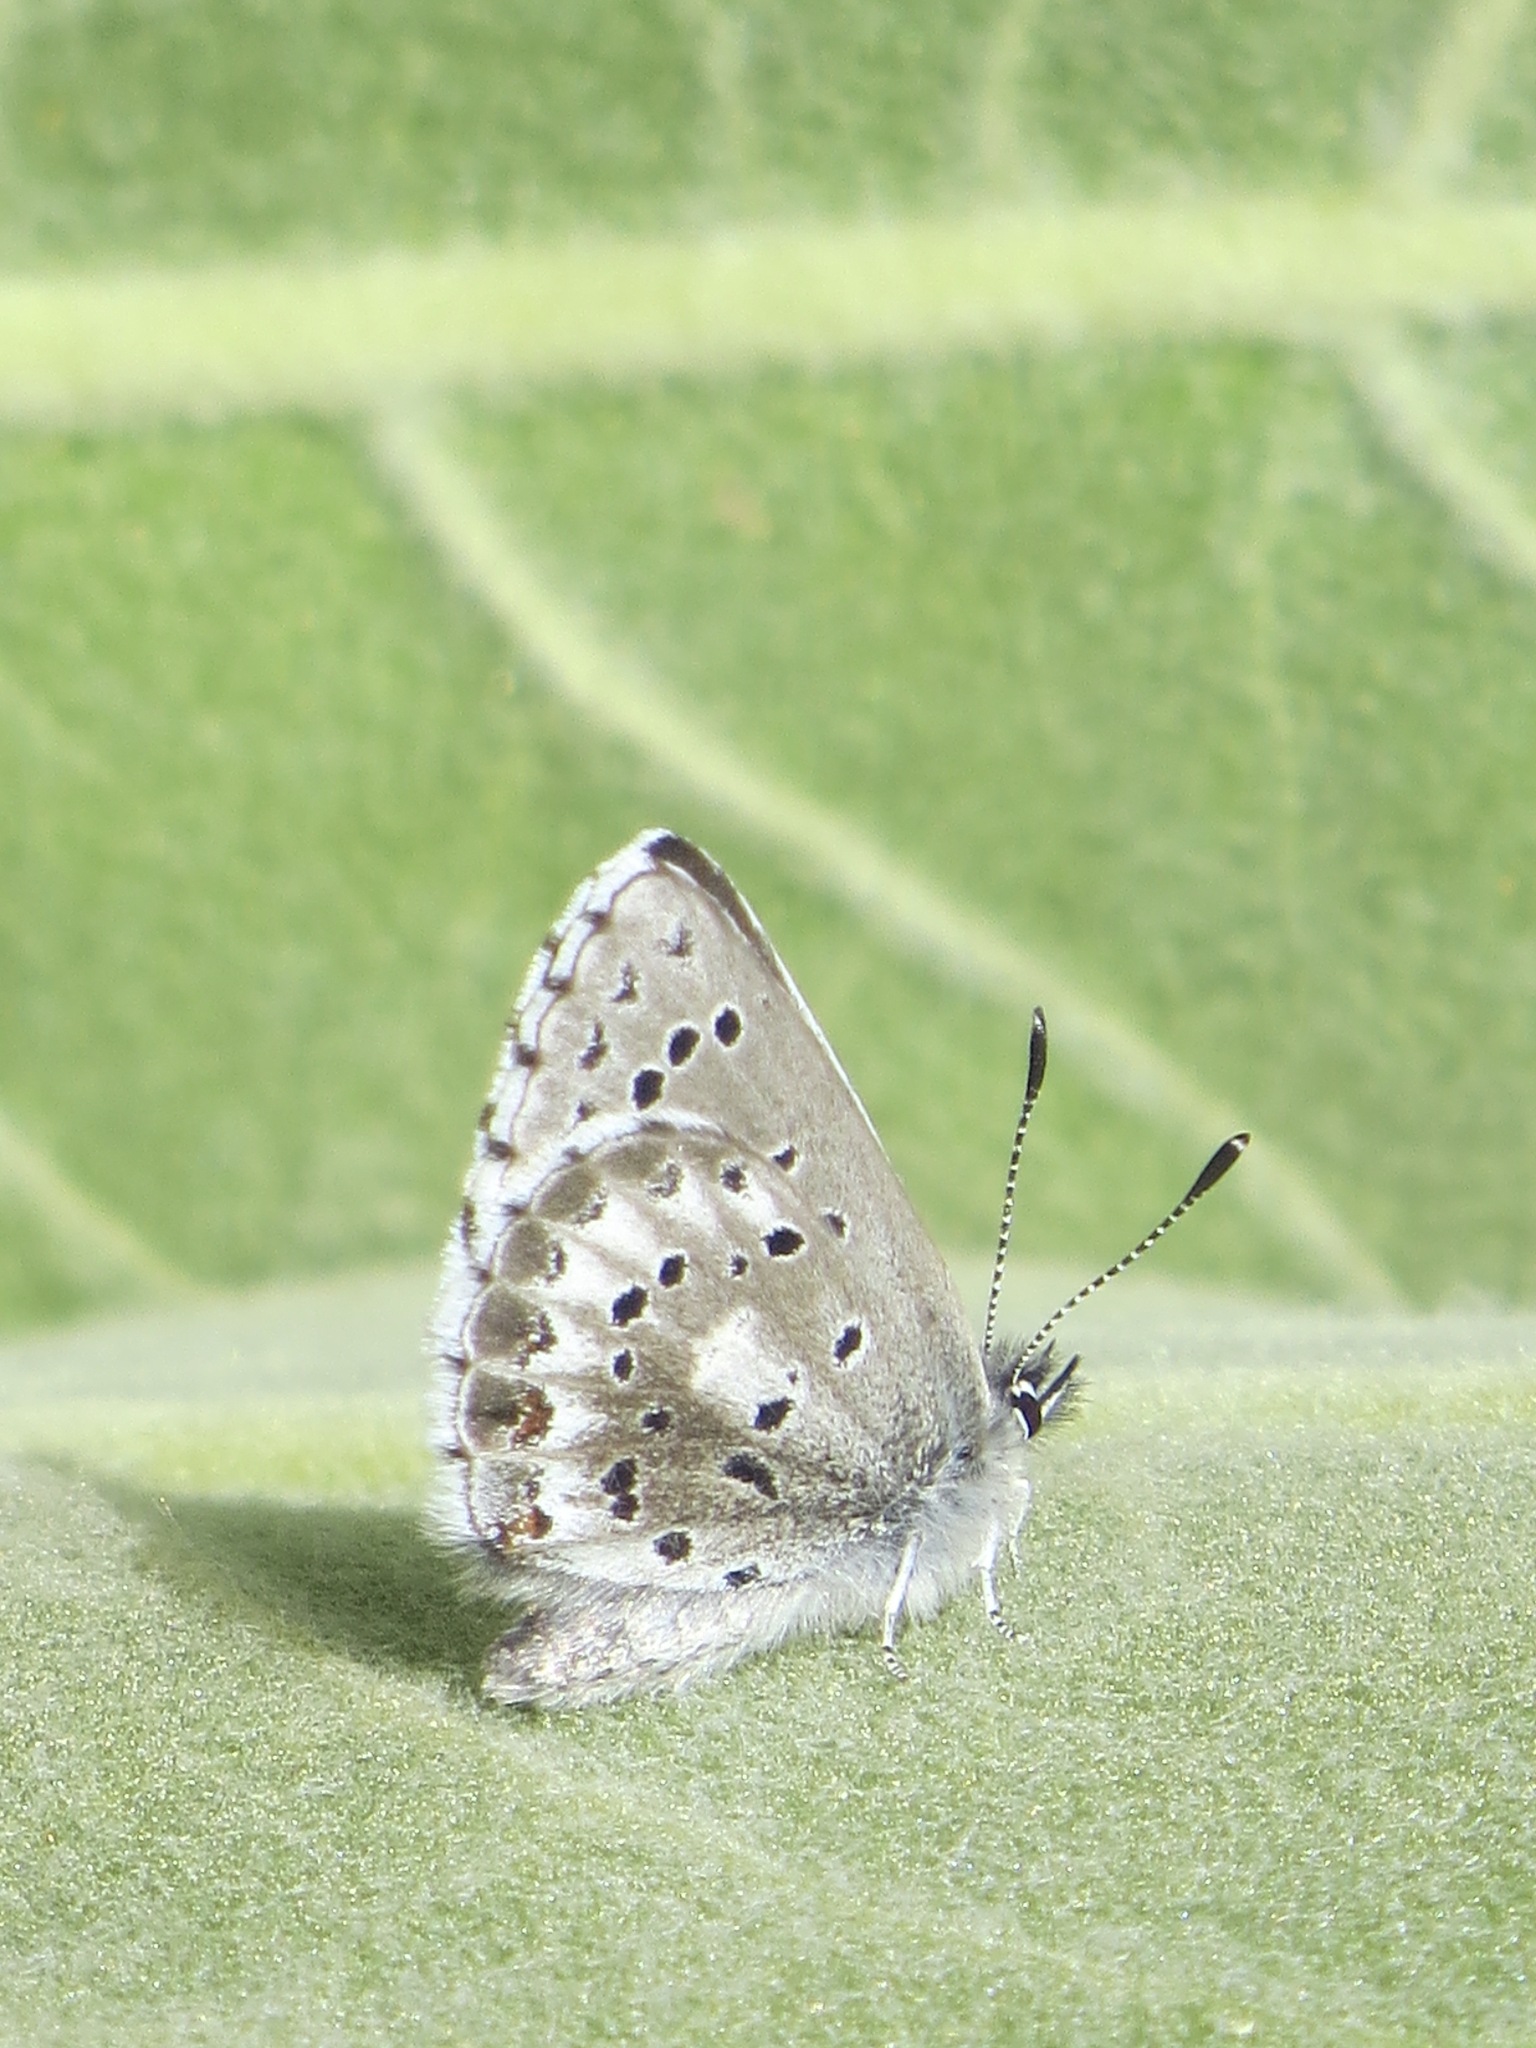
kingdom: Animalia
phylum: Arthropoda
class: Insecta
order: Lepidoptera
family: Lycaenidae
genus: Glaucopsyche
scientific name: Glaucopsyche piasus
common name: Arrowhead blue
